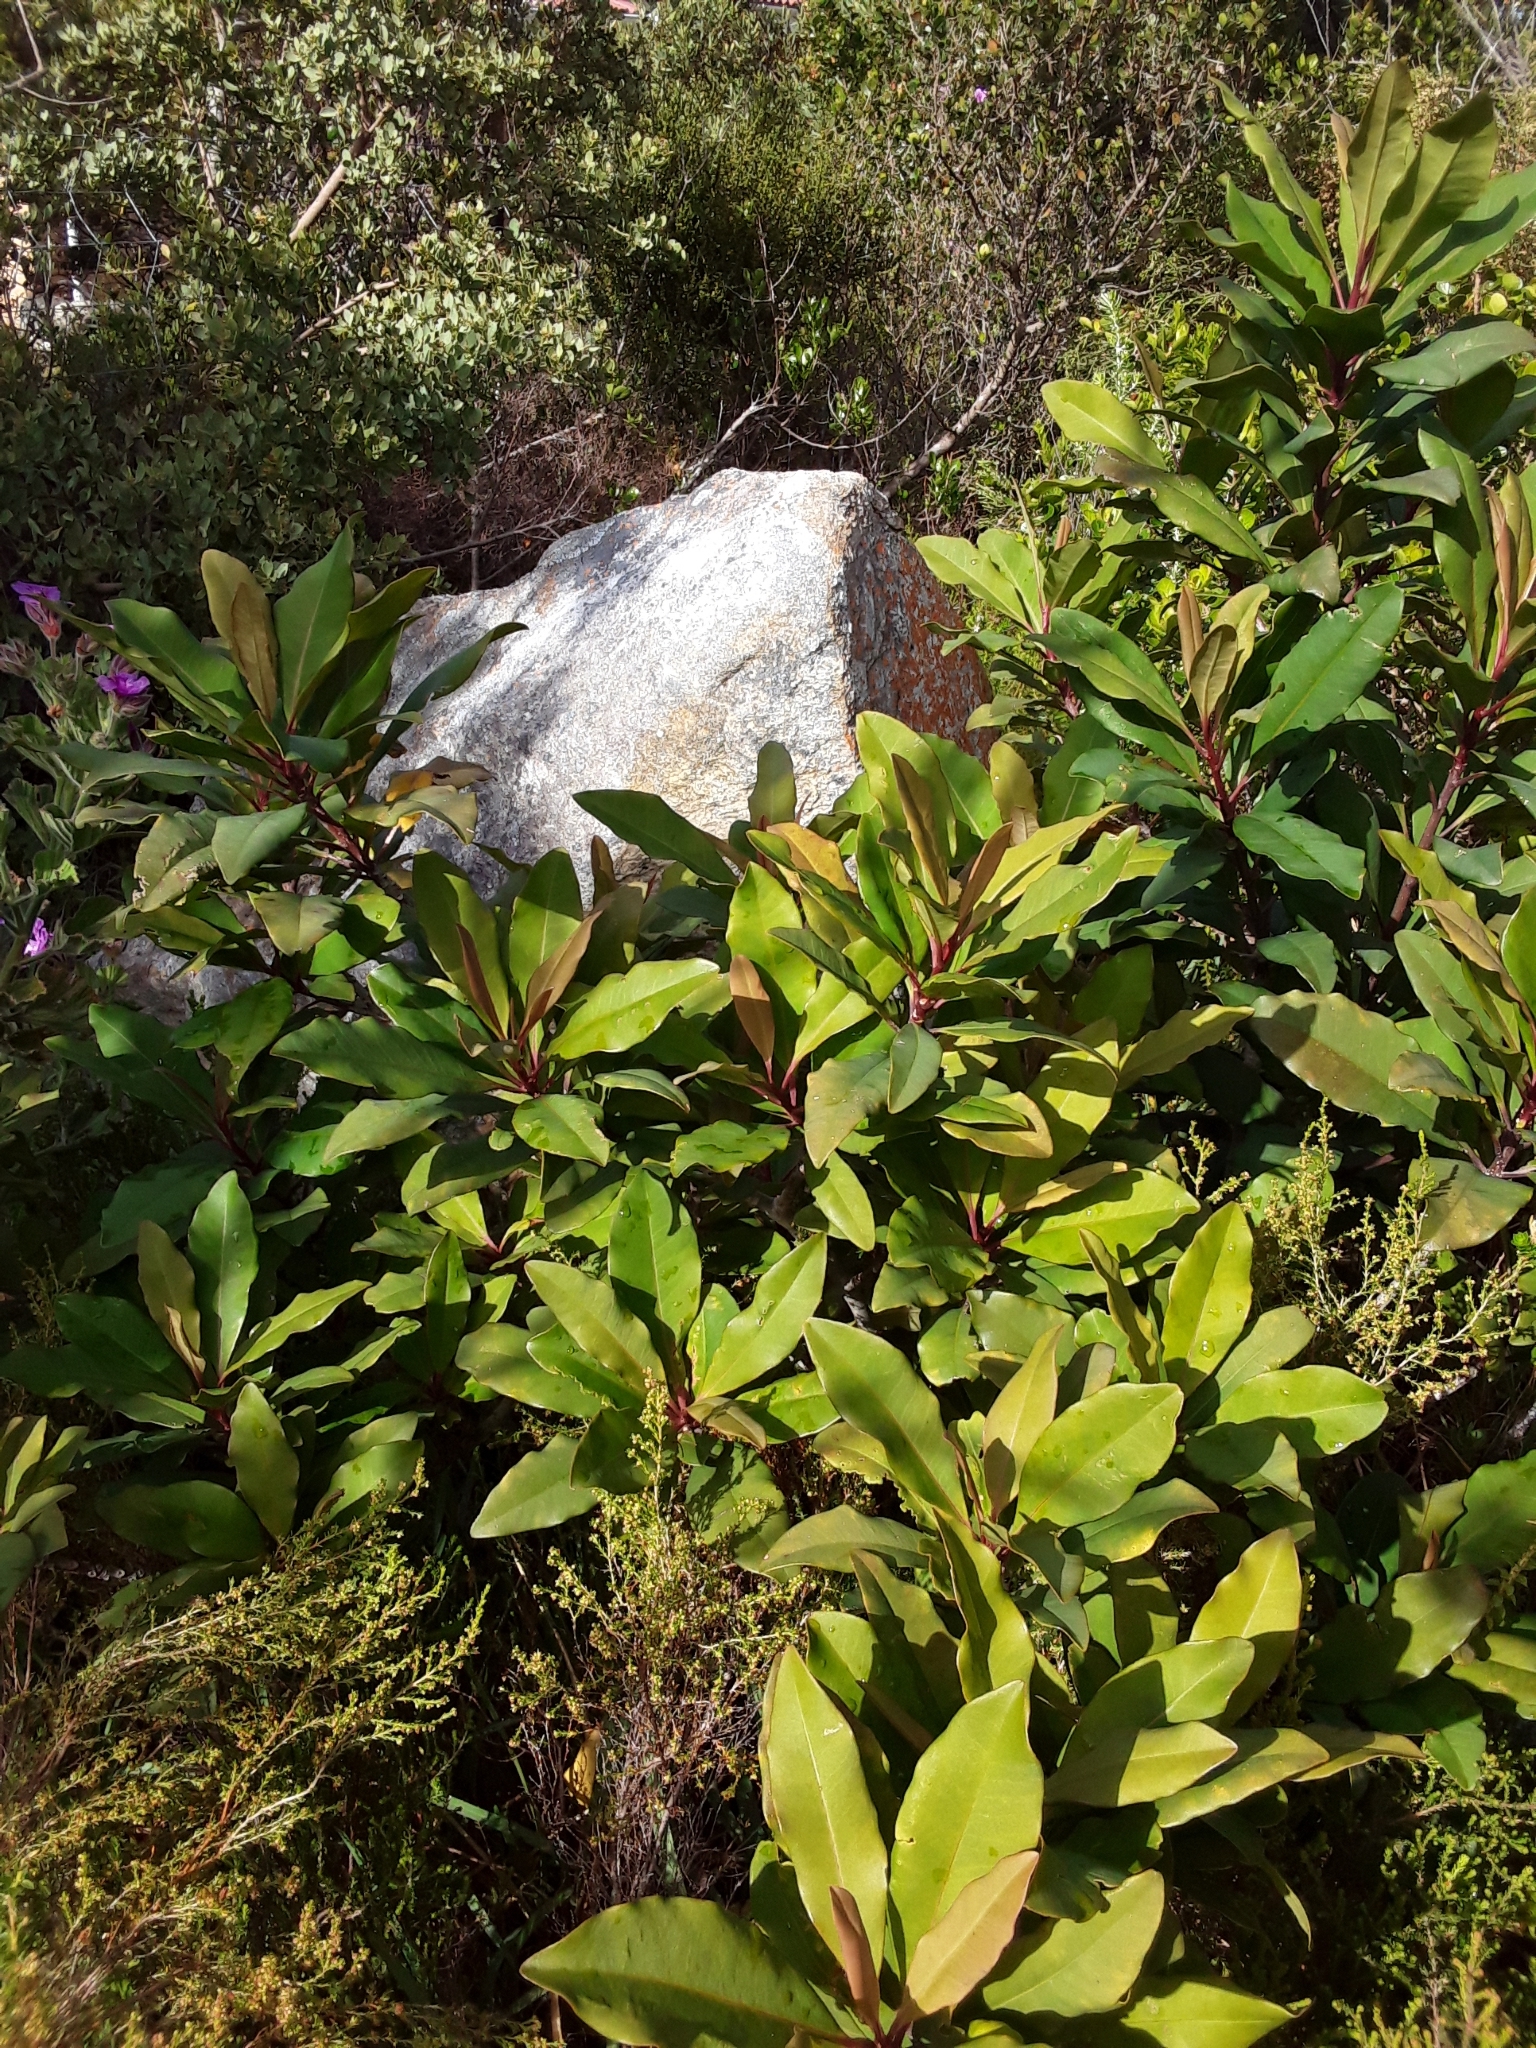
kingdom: Plantae
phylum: Tracheophyta
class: Magnoliopsida
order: Ericales
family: Primulaceae
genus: Myrsine
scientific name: Myrsine melanophloeos
